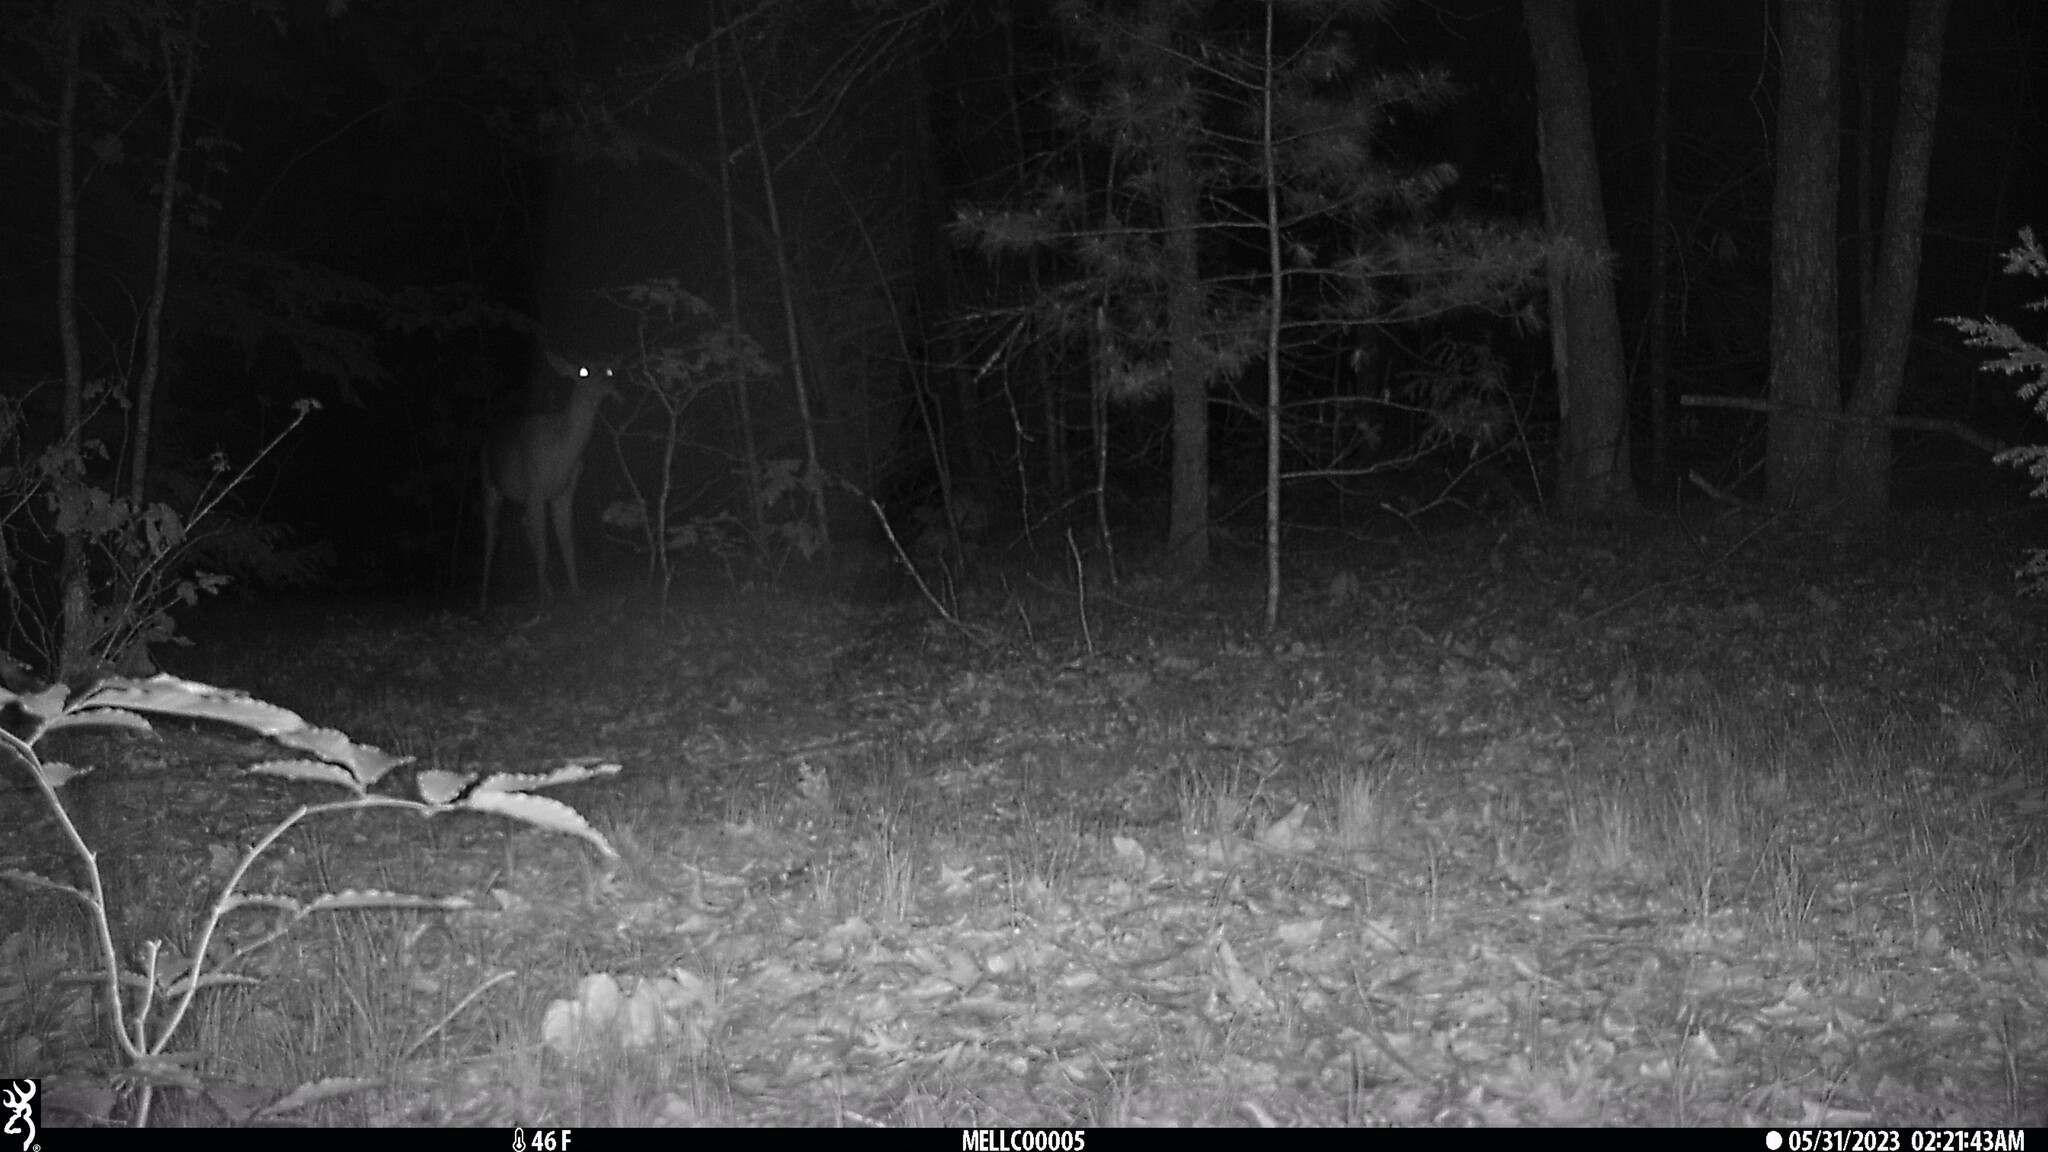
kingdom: Animalia
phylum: Chordata
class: Mammalia
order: Artiodactyla
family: Cervidae
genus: Odocoileus
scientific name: Odocoileus virginianus
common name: White-tailed deer
